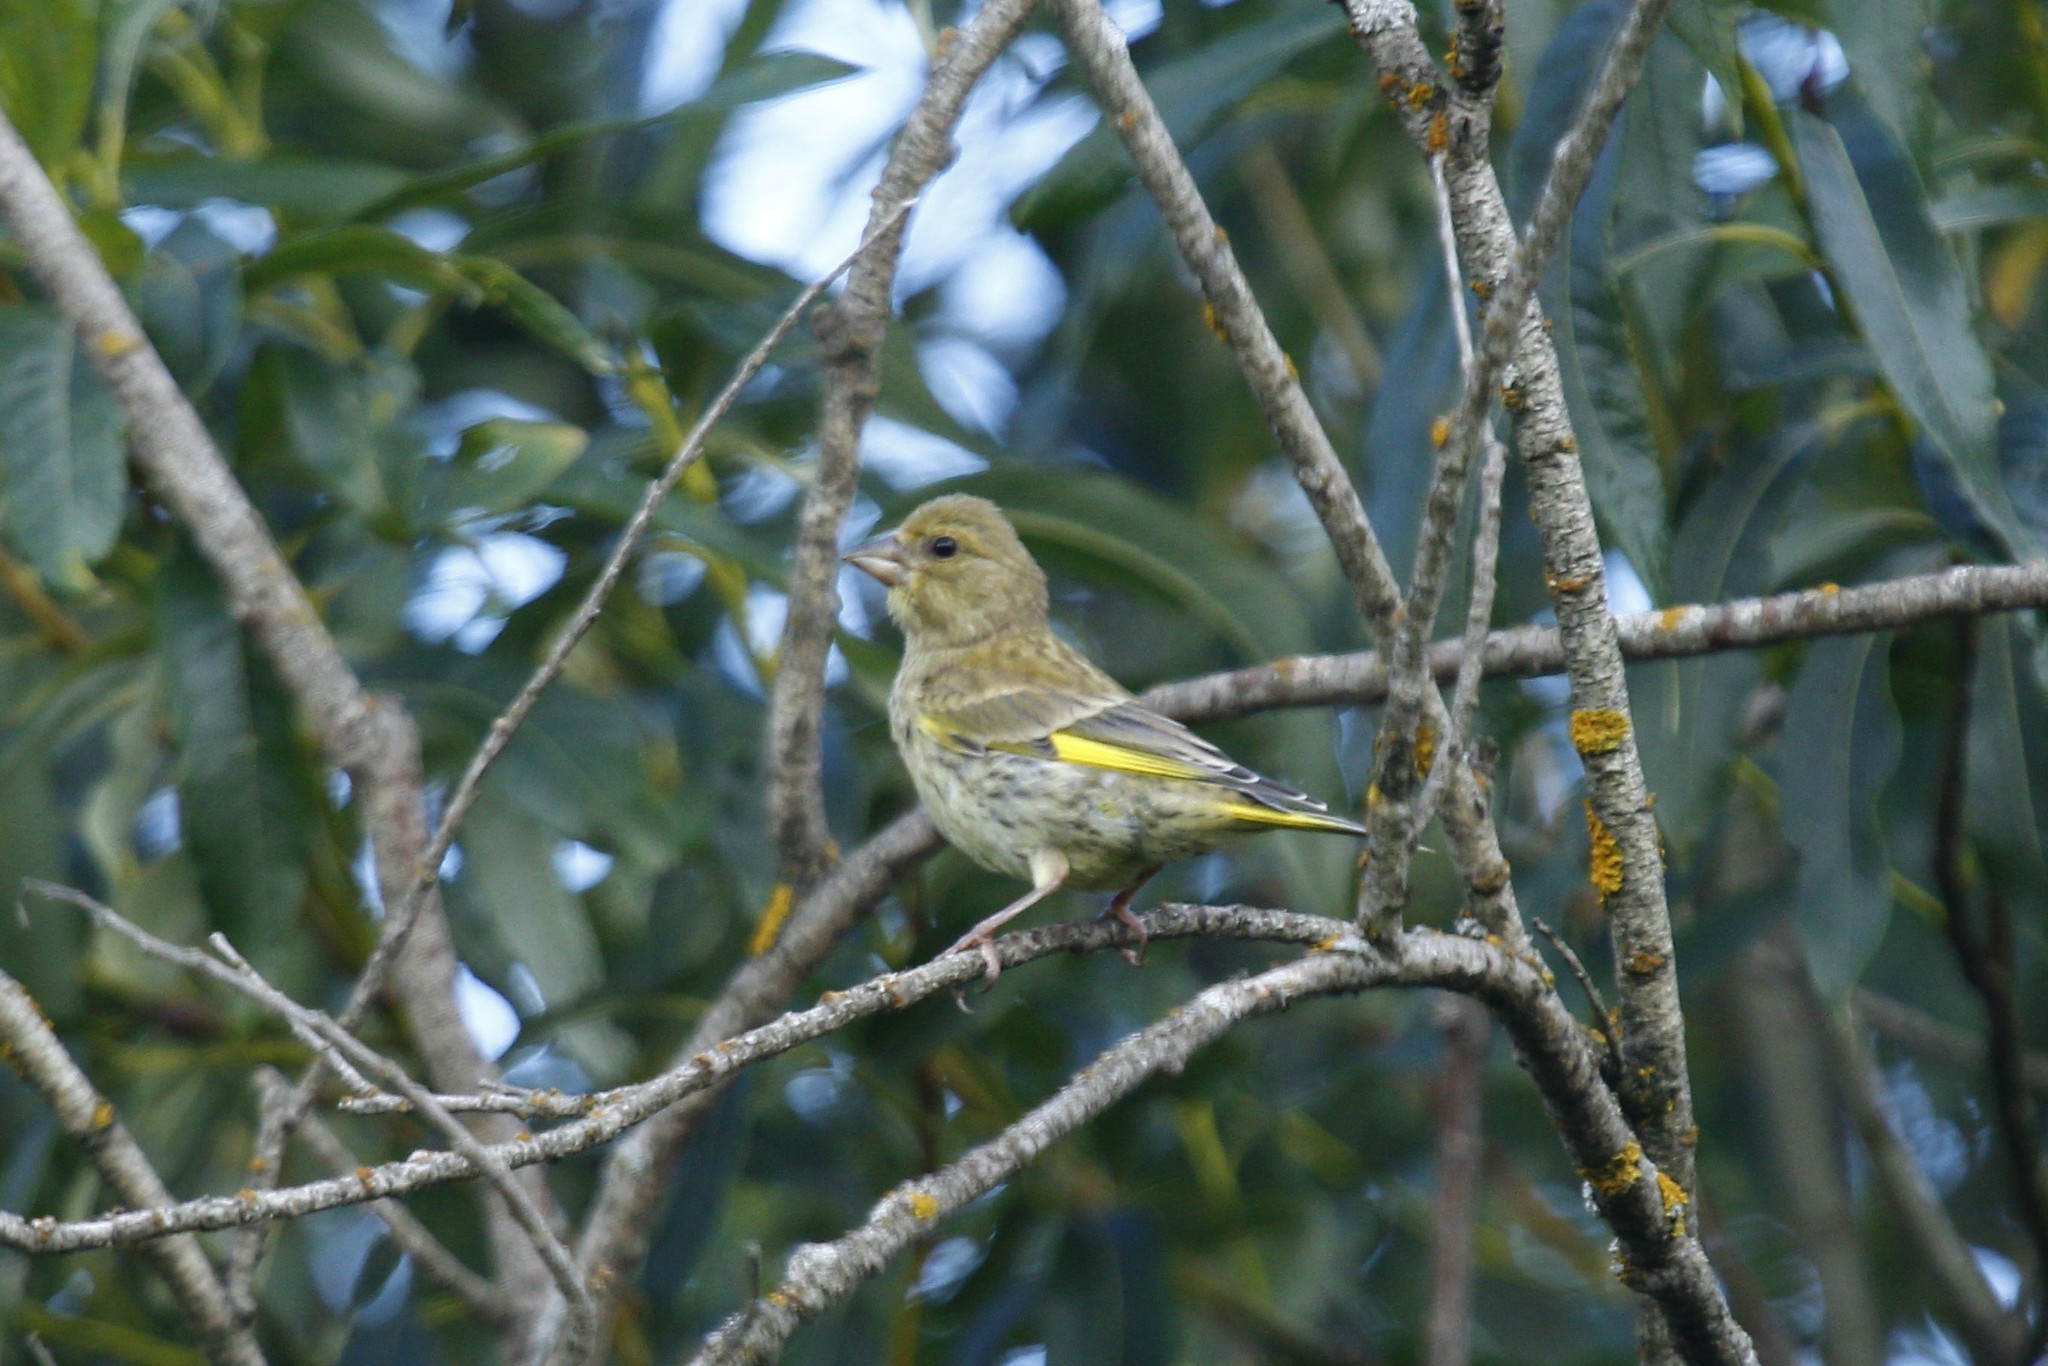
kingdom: Plantae
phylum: Tracheophyta
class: Liliopsida
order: Poales
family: Poaceae
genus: Chloris
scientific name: Chloris chloris
